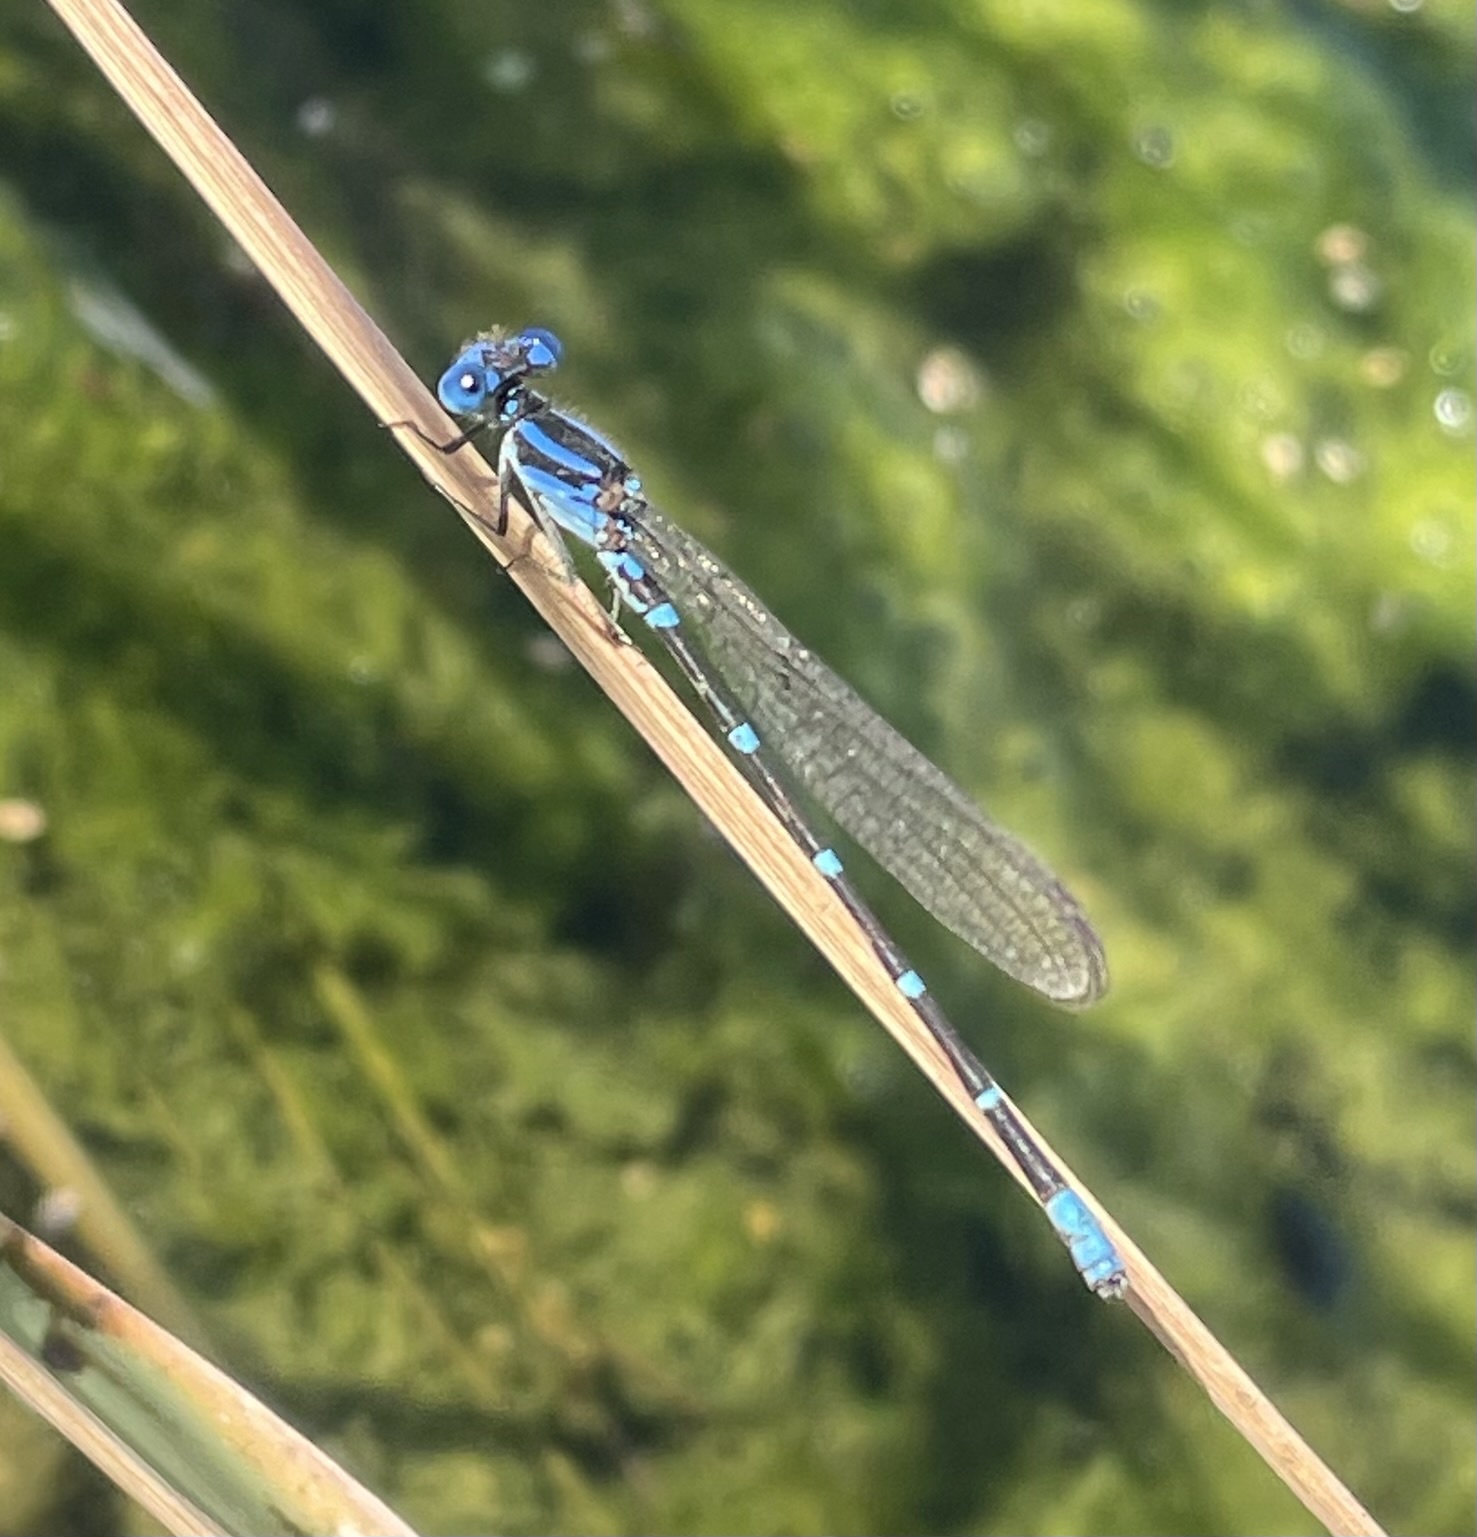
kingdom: Animalia
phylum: Arthropoda
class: Insecta
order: Odonata
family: Coenagrionidae
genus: Argia
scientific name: Argia sedula
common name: Blue-ringed dancer
